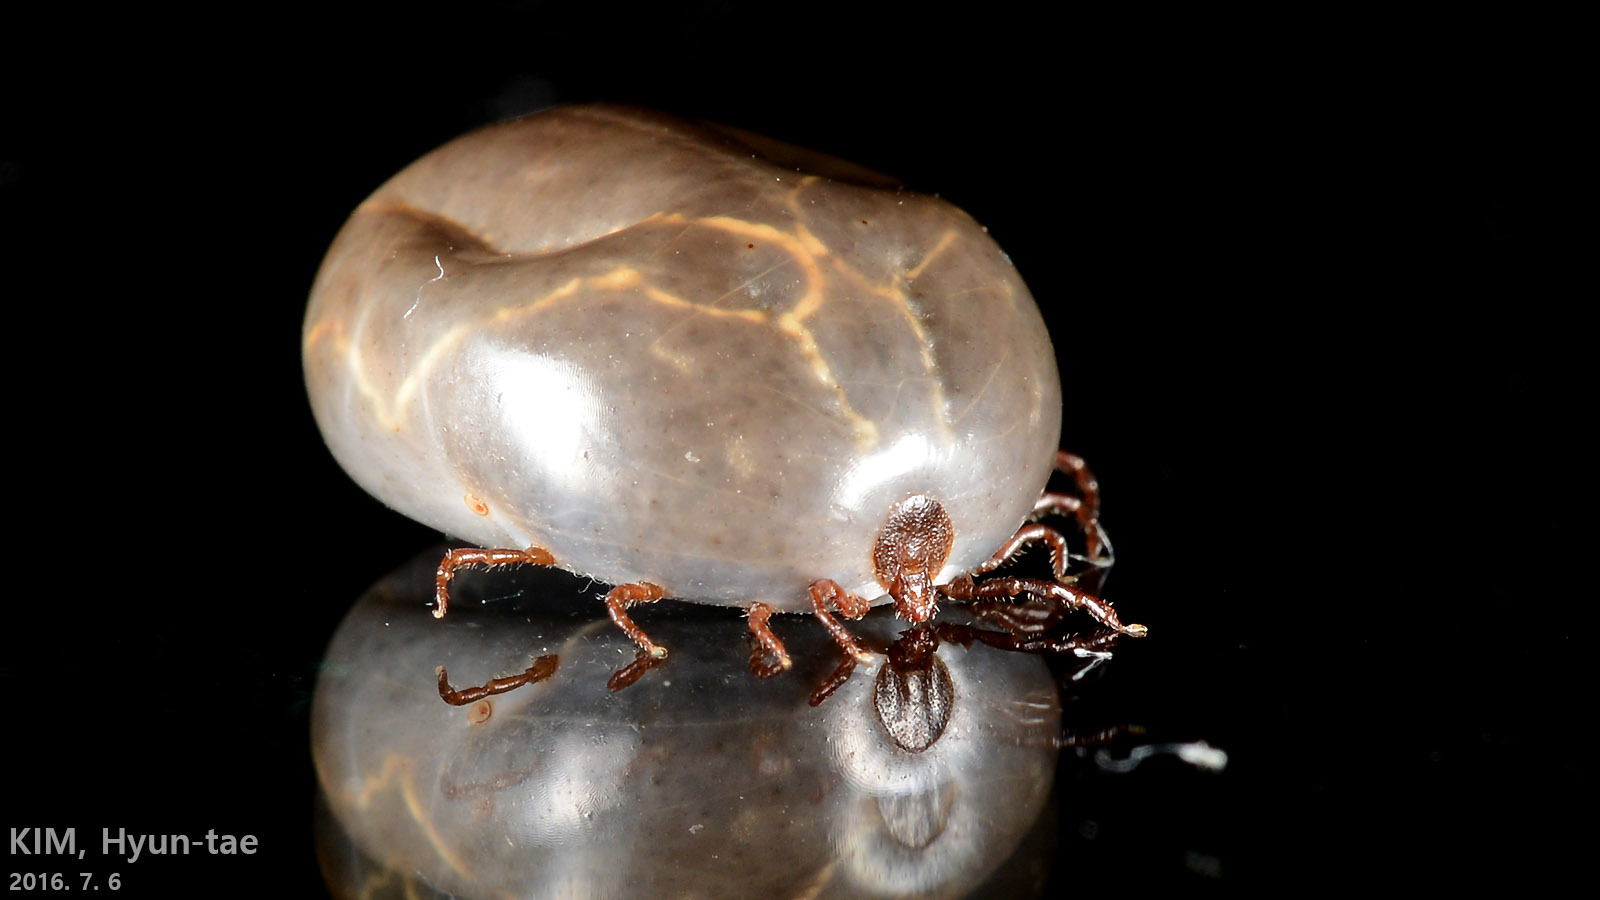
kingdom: Animalia
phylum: Arthropoda
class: Arachnida
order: Ixodida
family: Ixodidae
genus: Haemaphysalis
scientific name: Haemaphysalis longicornis
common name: Bush tick
